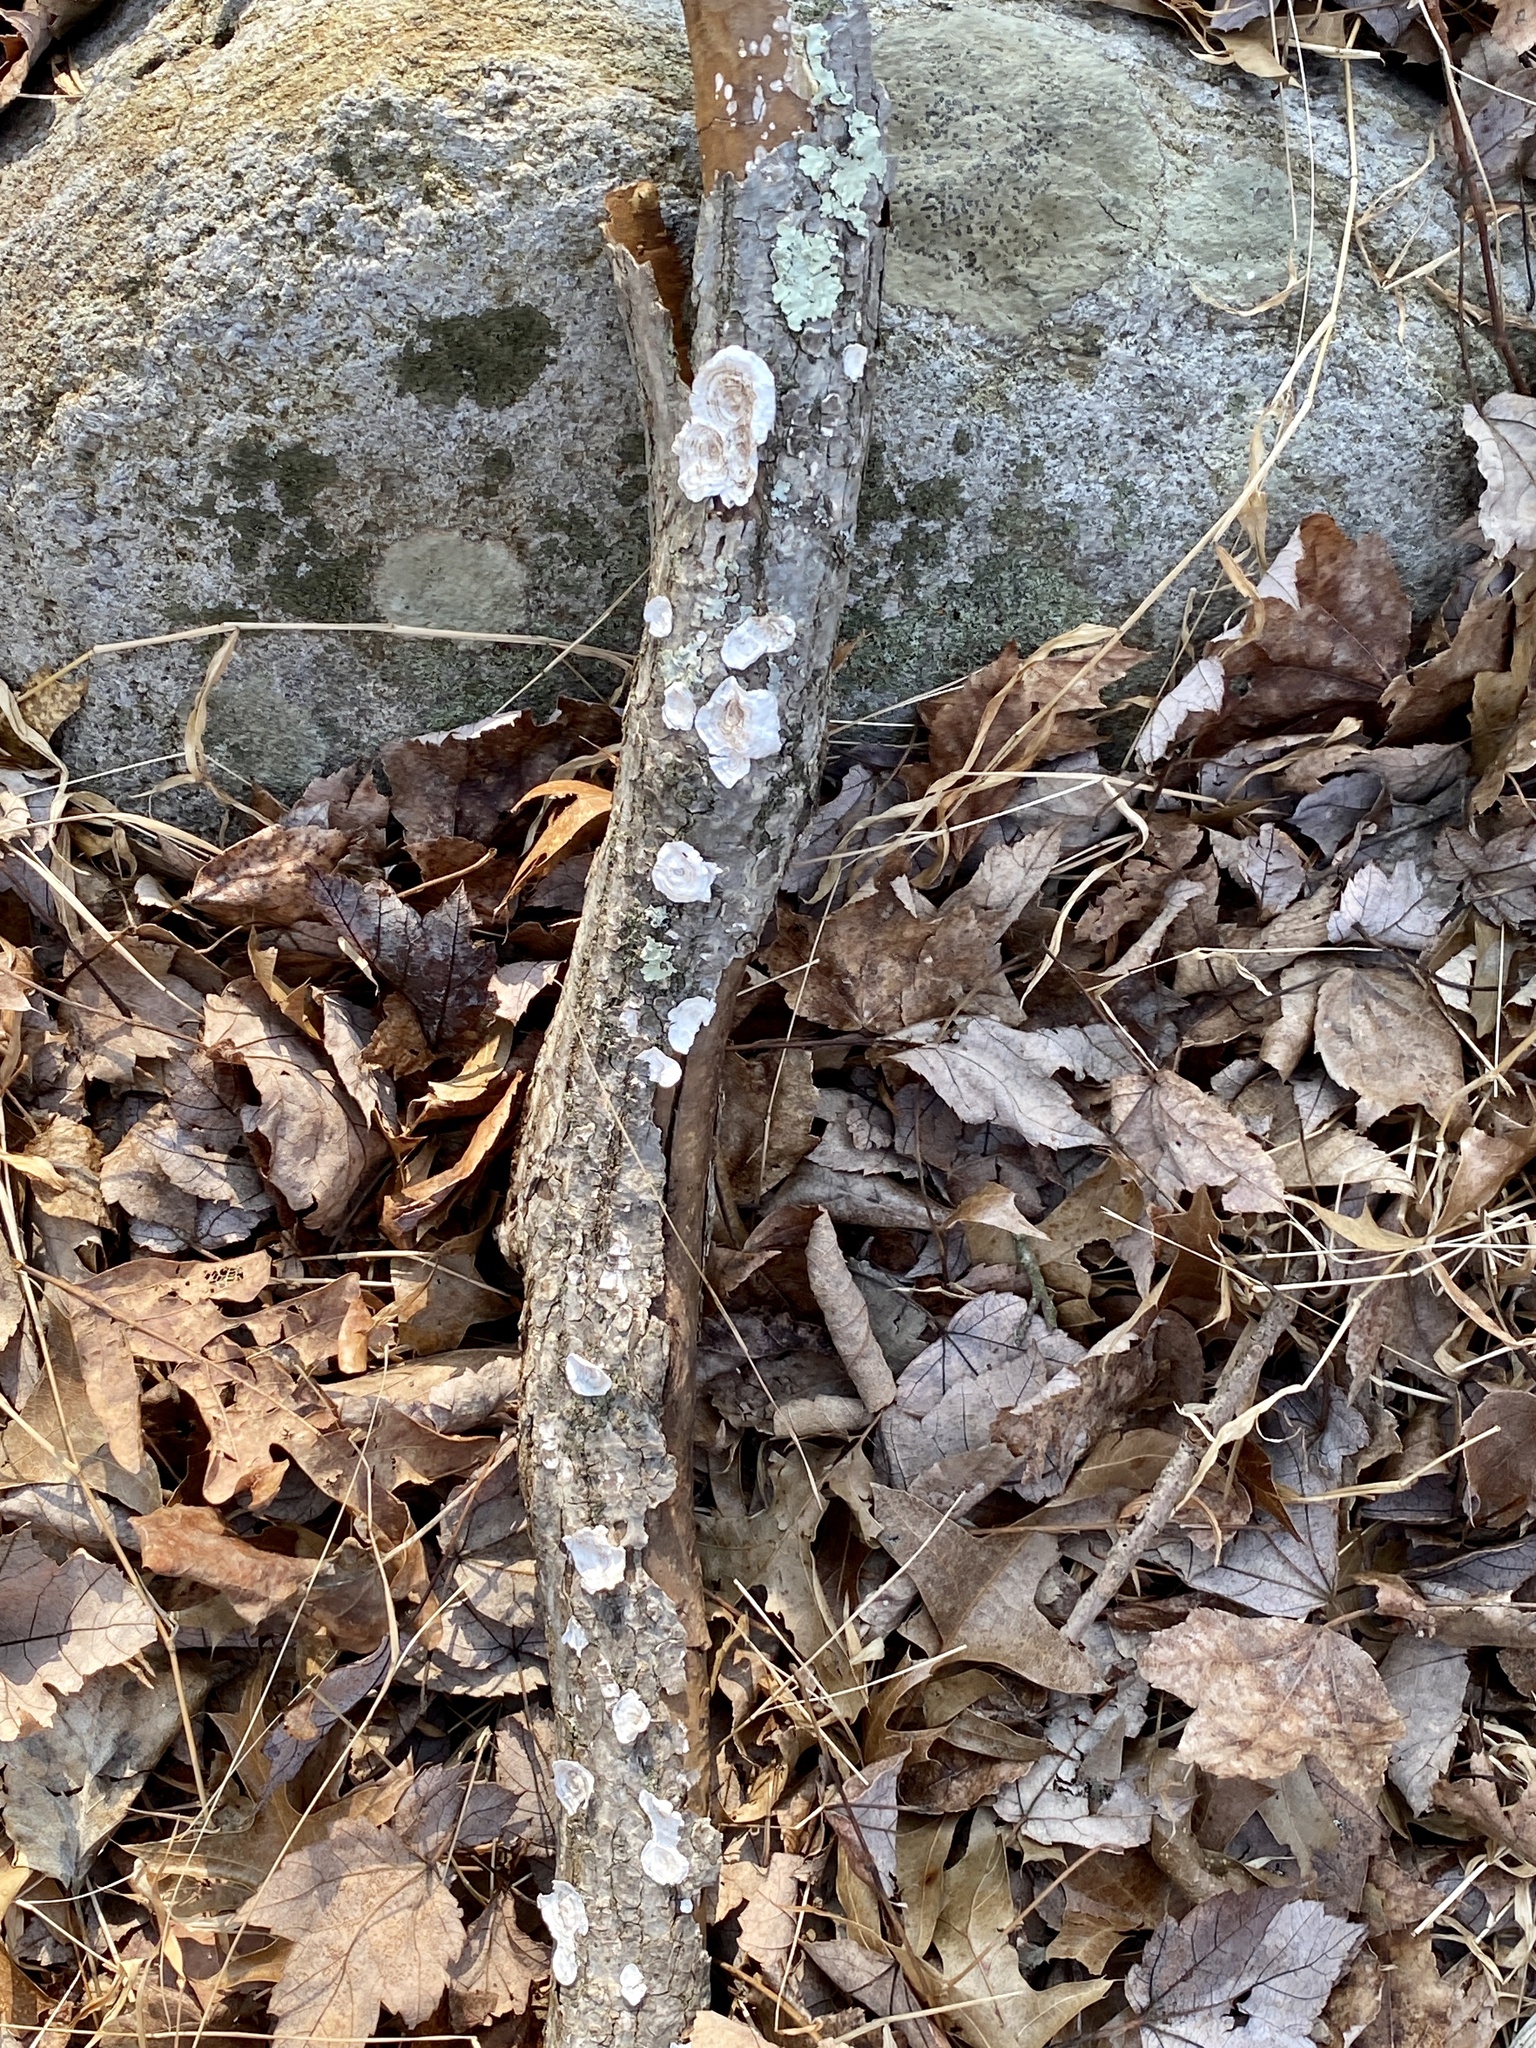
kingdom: Fungi
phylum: Basidiomycota
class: Agaricomycetes
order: Polyporales
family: Polyporaceae
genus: Poronidulus
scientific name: Poronidulus conchifer
